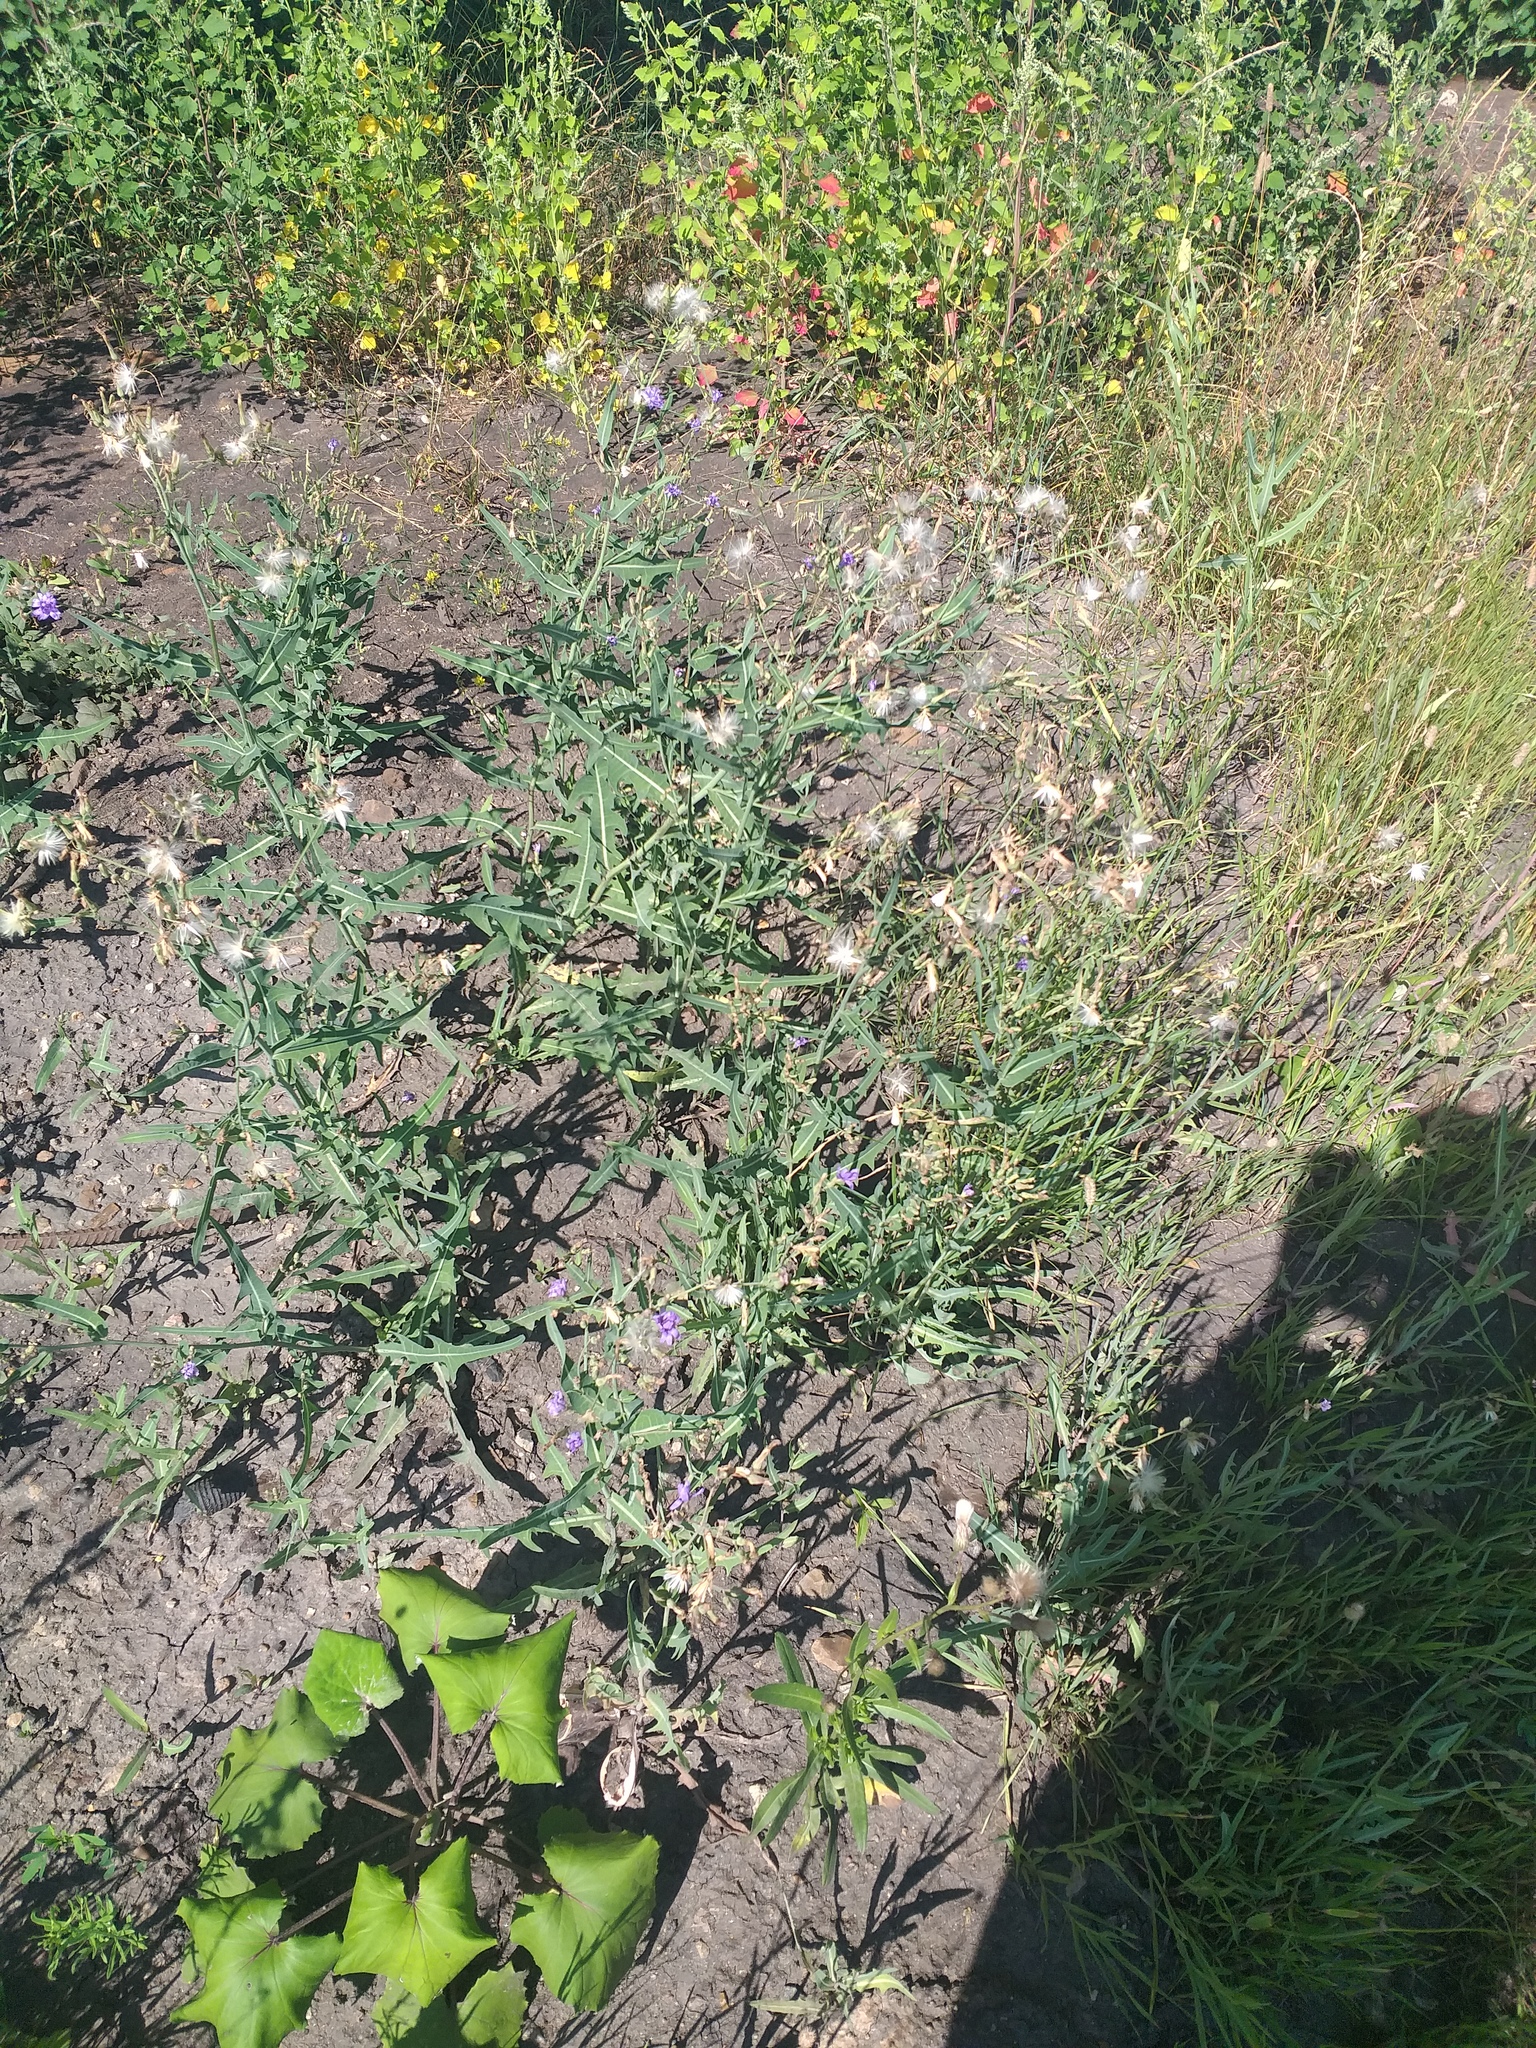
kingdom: Plantae
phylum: Tracheophyta
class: Magnoliopsida
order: Asterales
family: Asteraceae
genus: Lactuca
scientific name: Lactuca tatarica
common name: Blue lettuce
